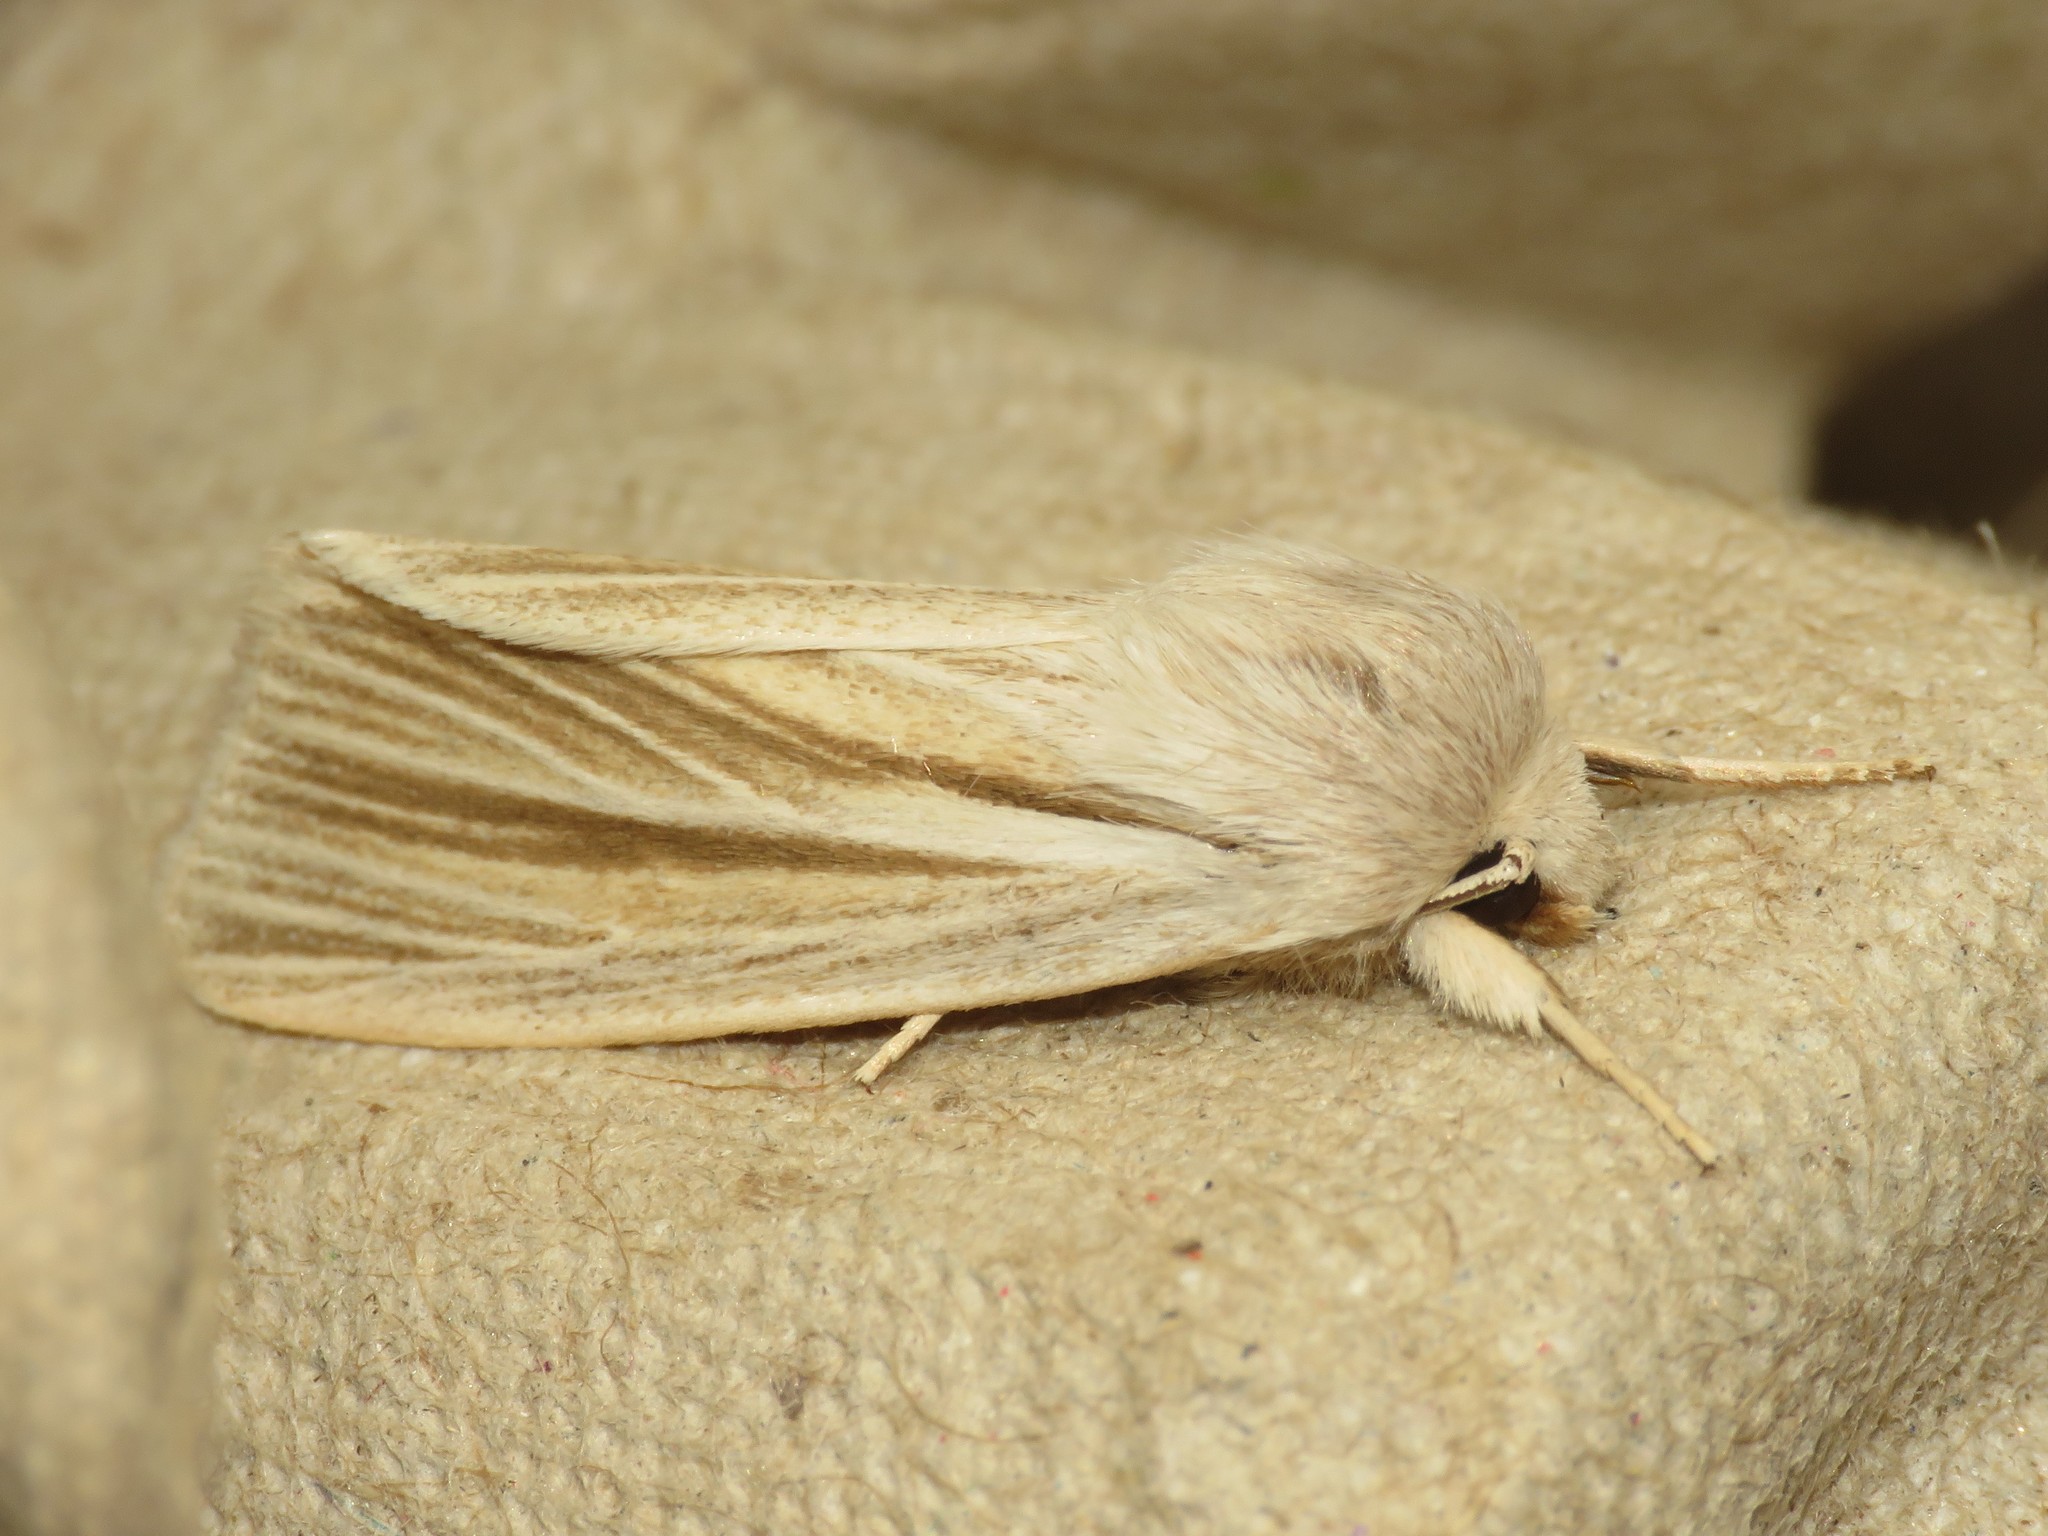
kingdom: Animalia
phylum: Arthropoda
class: Insecta
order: Lepidoptera
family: Noctuidae
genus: Acronicta
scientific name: Acronicta insularis
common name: Henry's marsh moth
